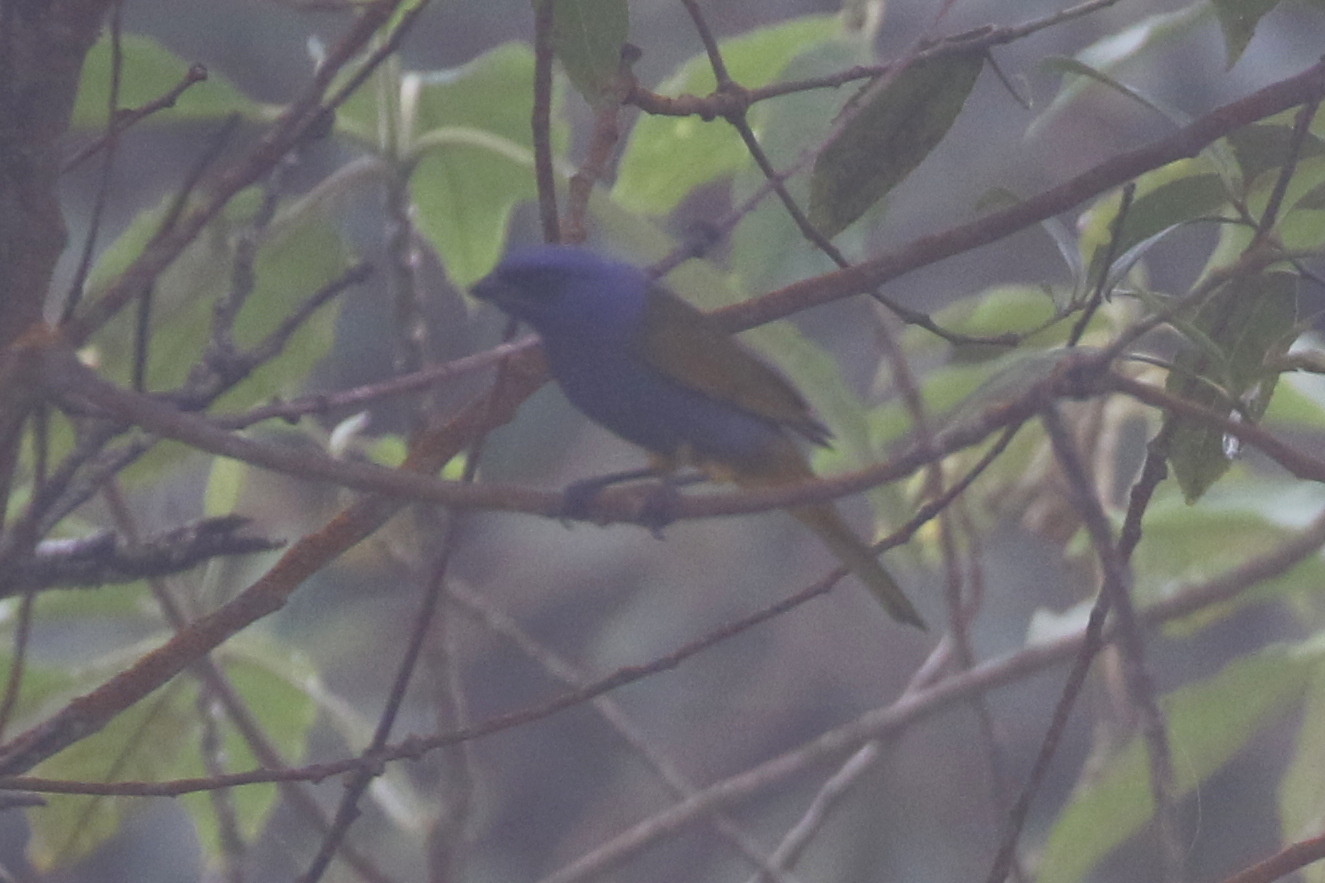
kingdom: Animalia
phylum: Chordata
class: Aves
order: Passeriformes
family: Thraupidae
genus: Sporathraupis
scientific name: Sporathraupis cyanocephala
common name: Blue-capped tanager
